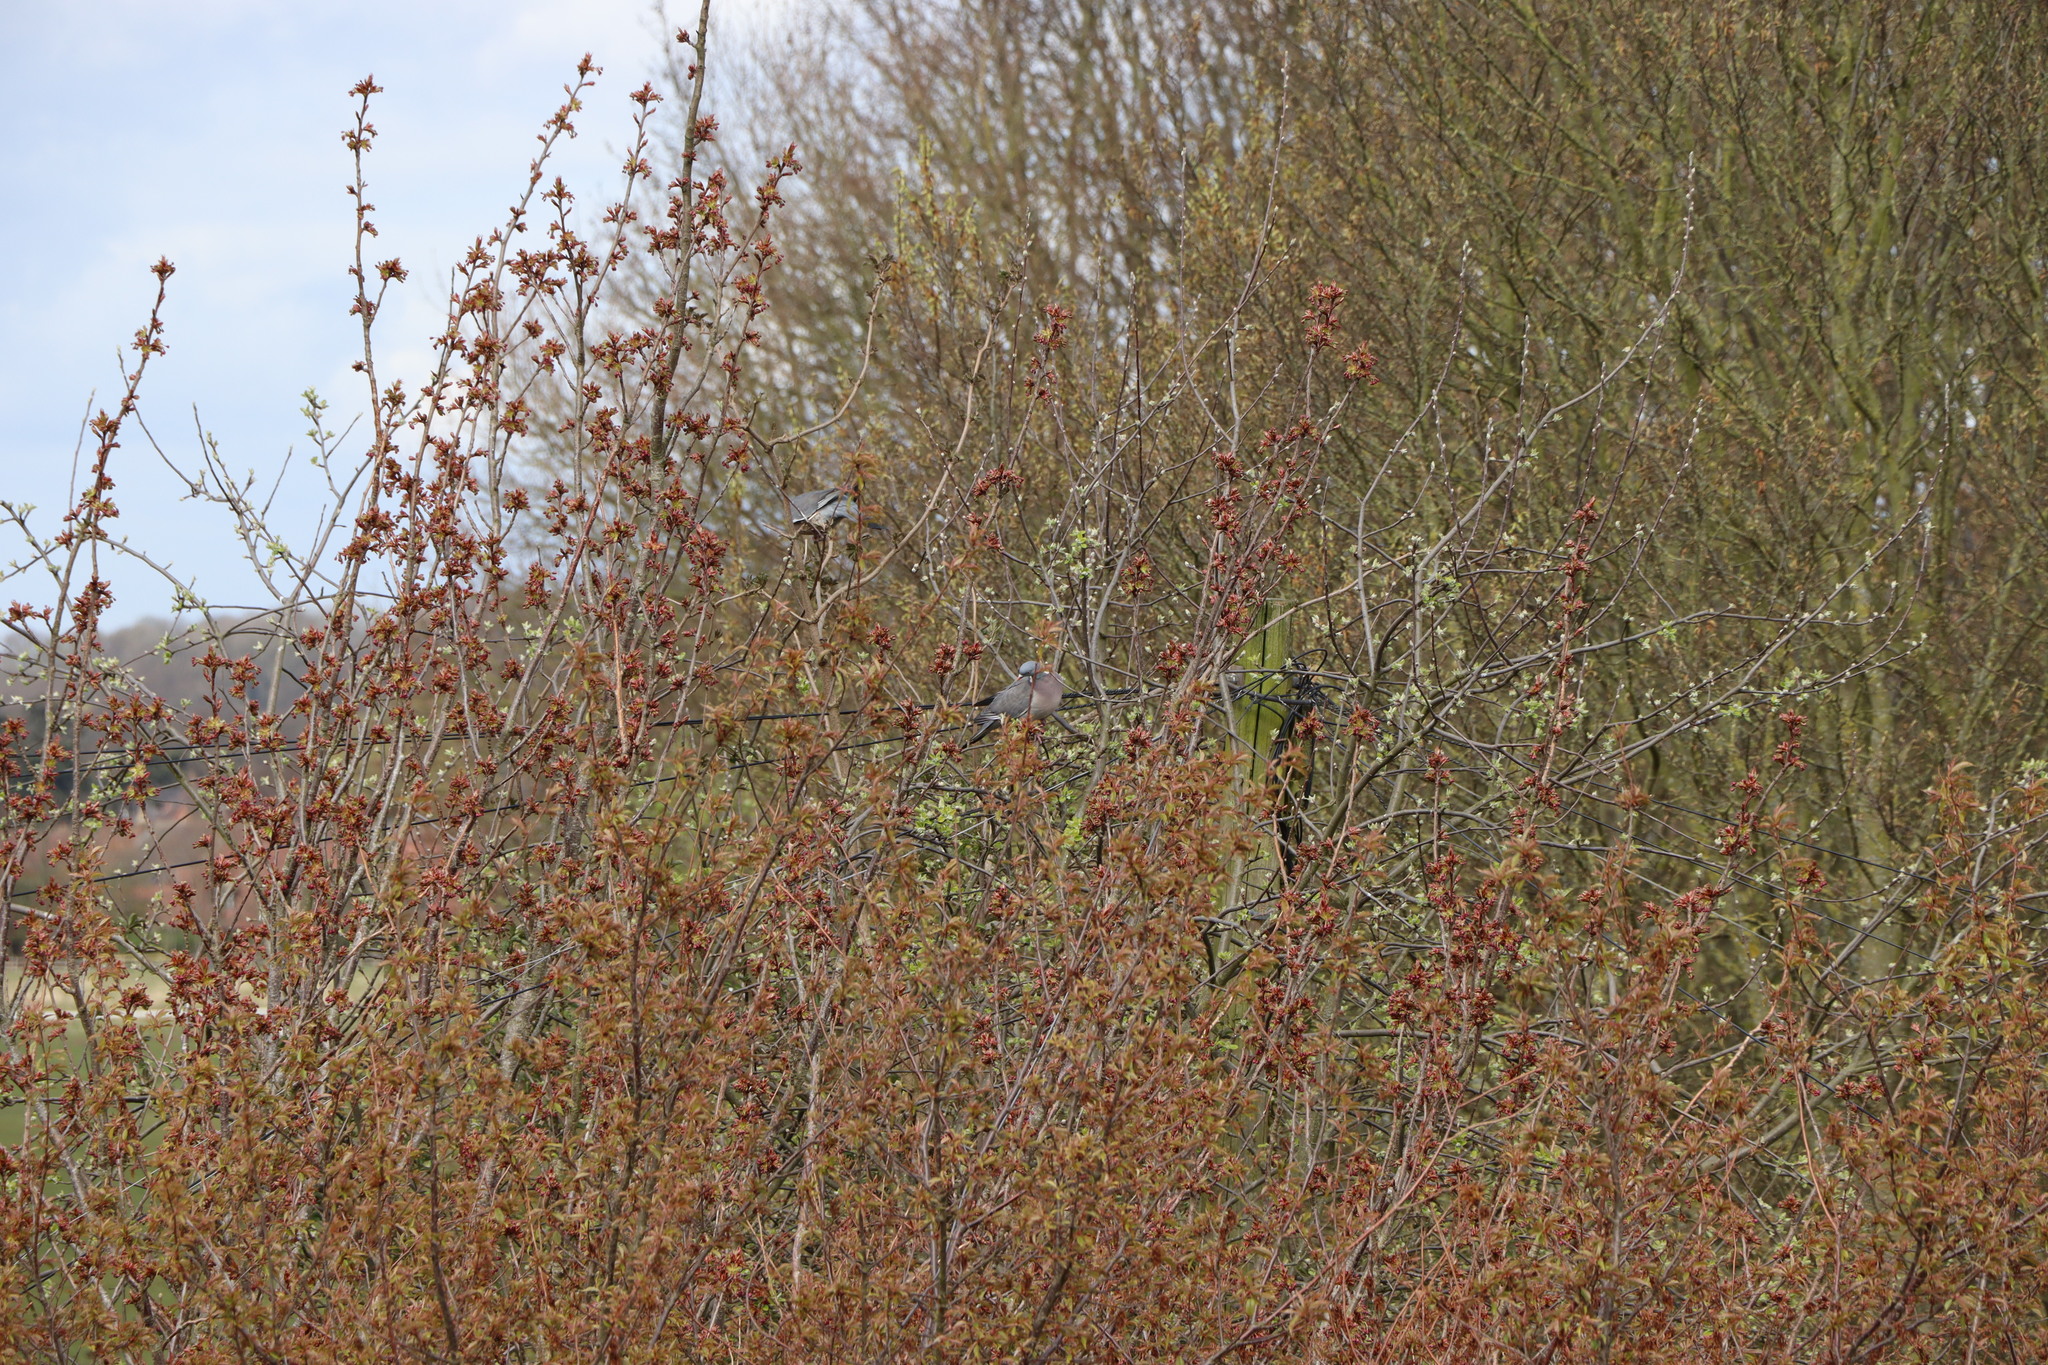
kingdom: Animalia
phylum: Chordata
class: Aves
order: Columbiformes
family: Columbidae
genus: Columba
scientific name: Columba palumbus
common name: Common wood pigeon
